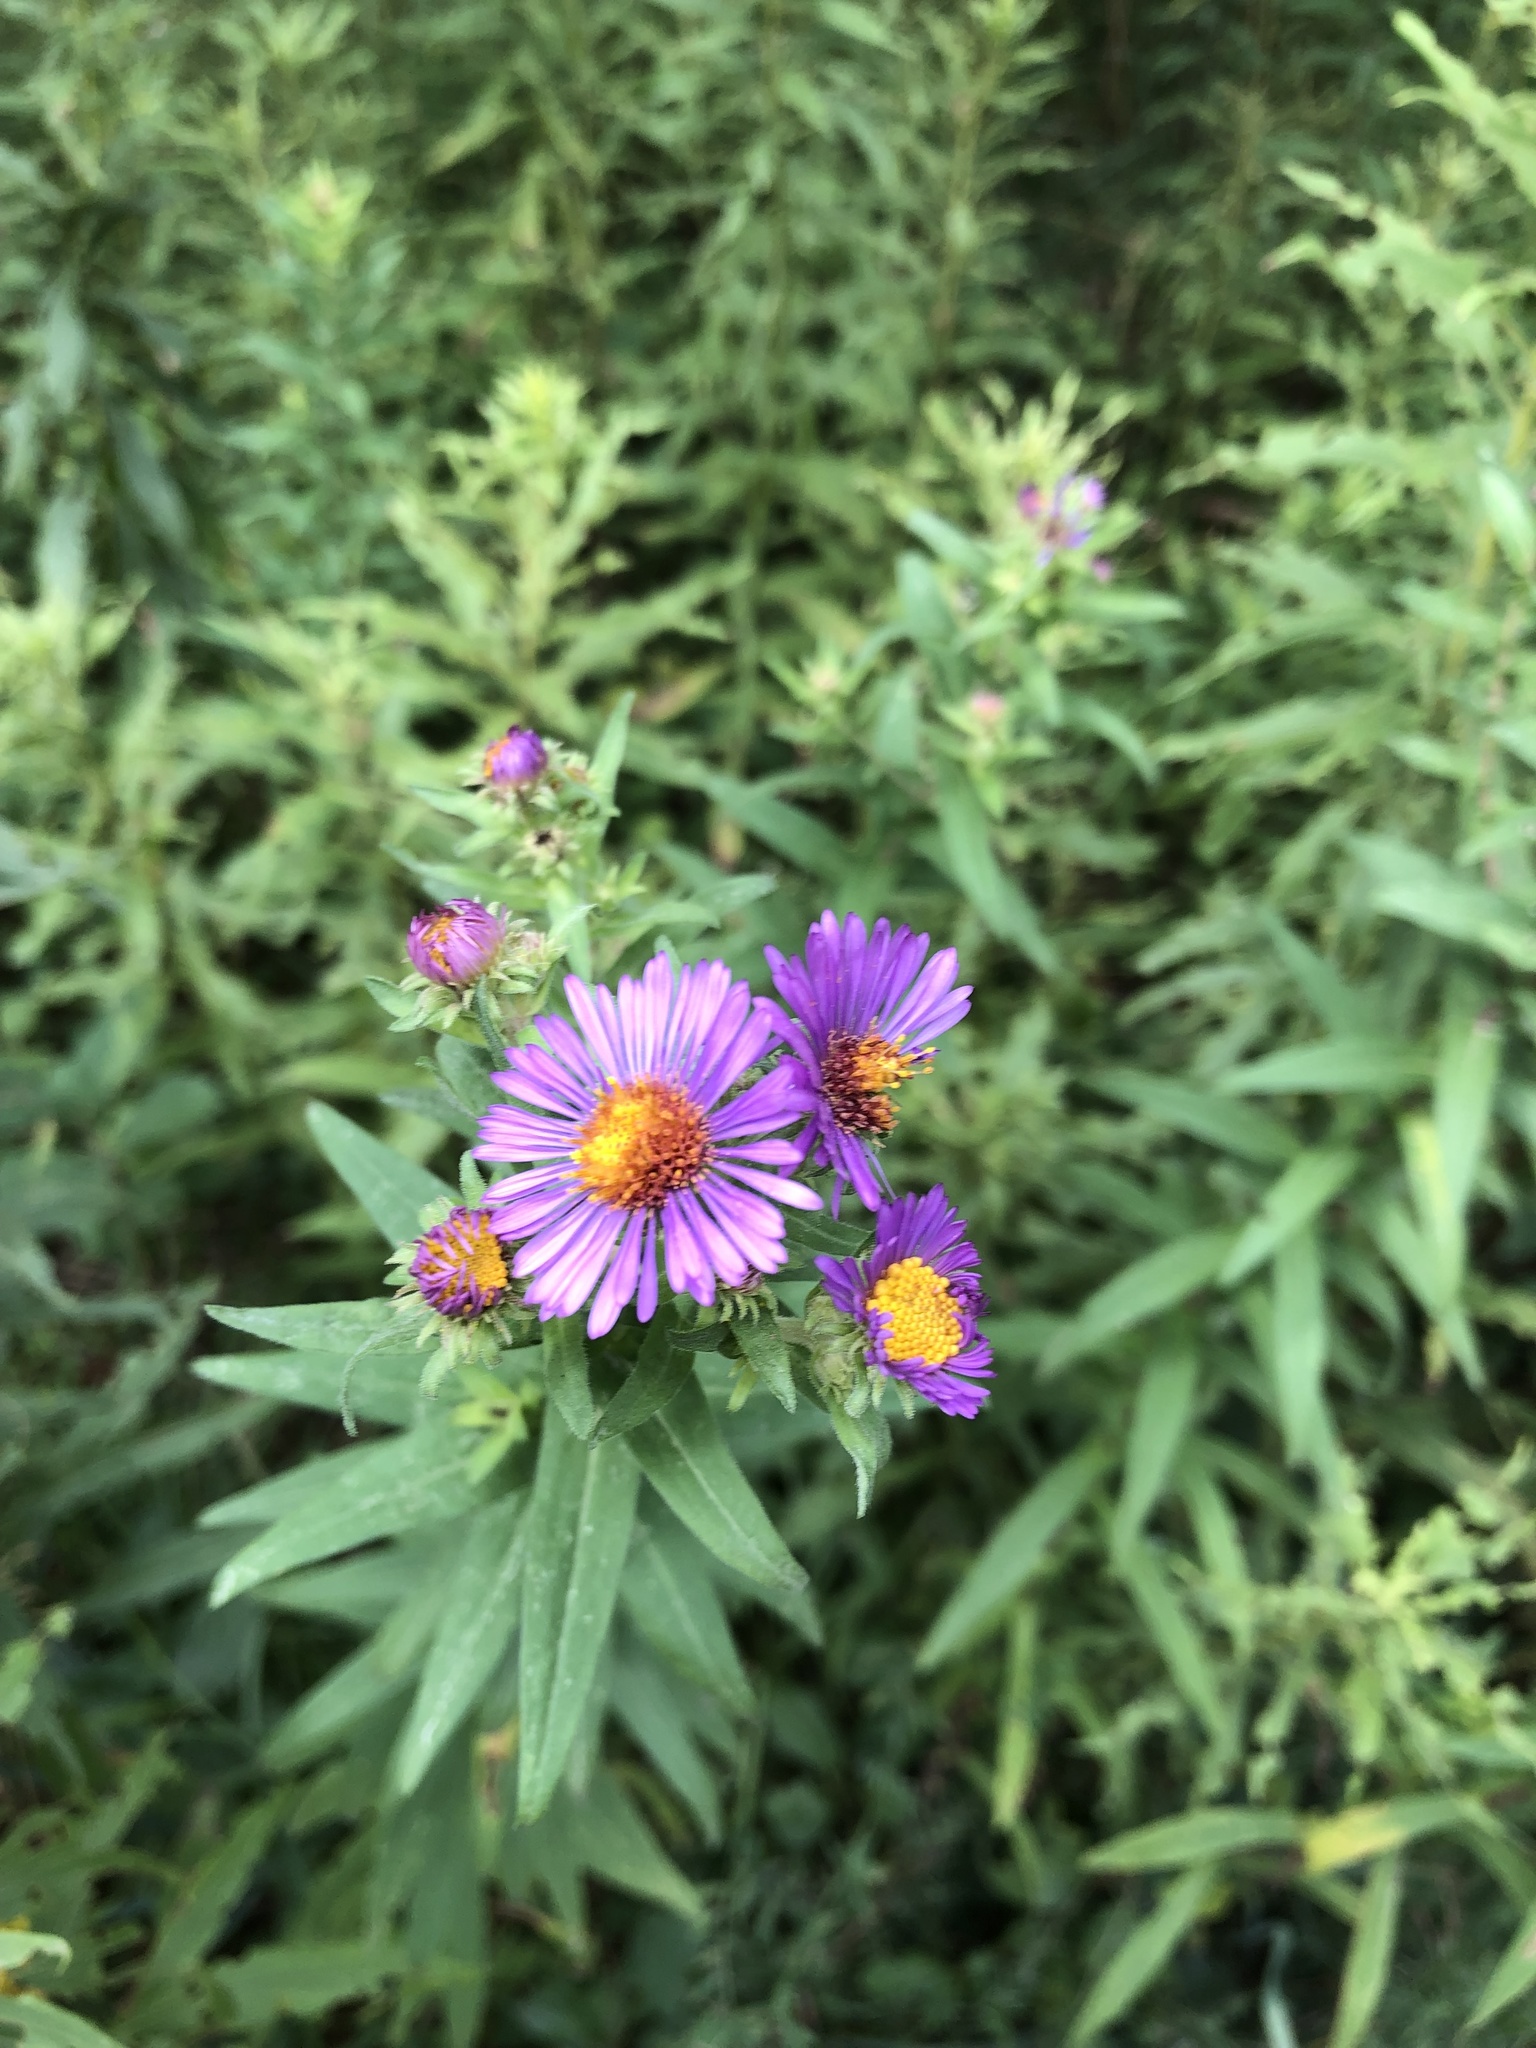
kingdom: Plantae
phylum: Tracheophyta
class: Magnoliopsida
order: Asterales
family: Asteraceae
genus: Symphyotrichum
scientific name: Symphyotrichum novae-angliae
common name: Michaelmas daisy
